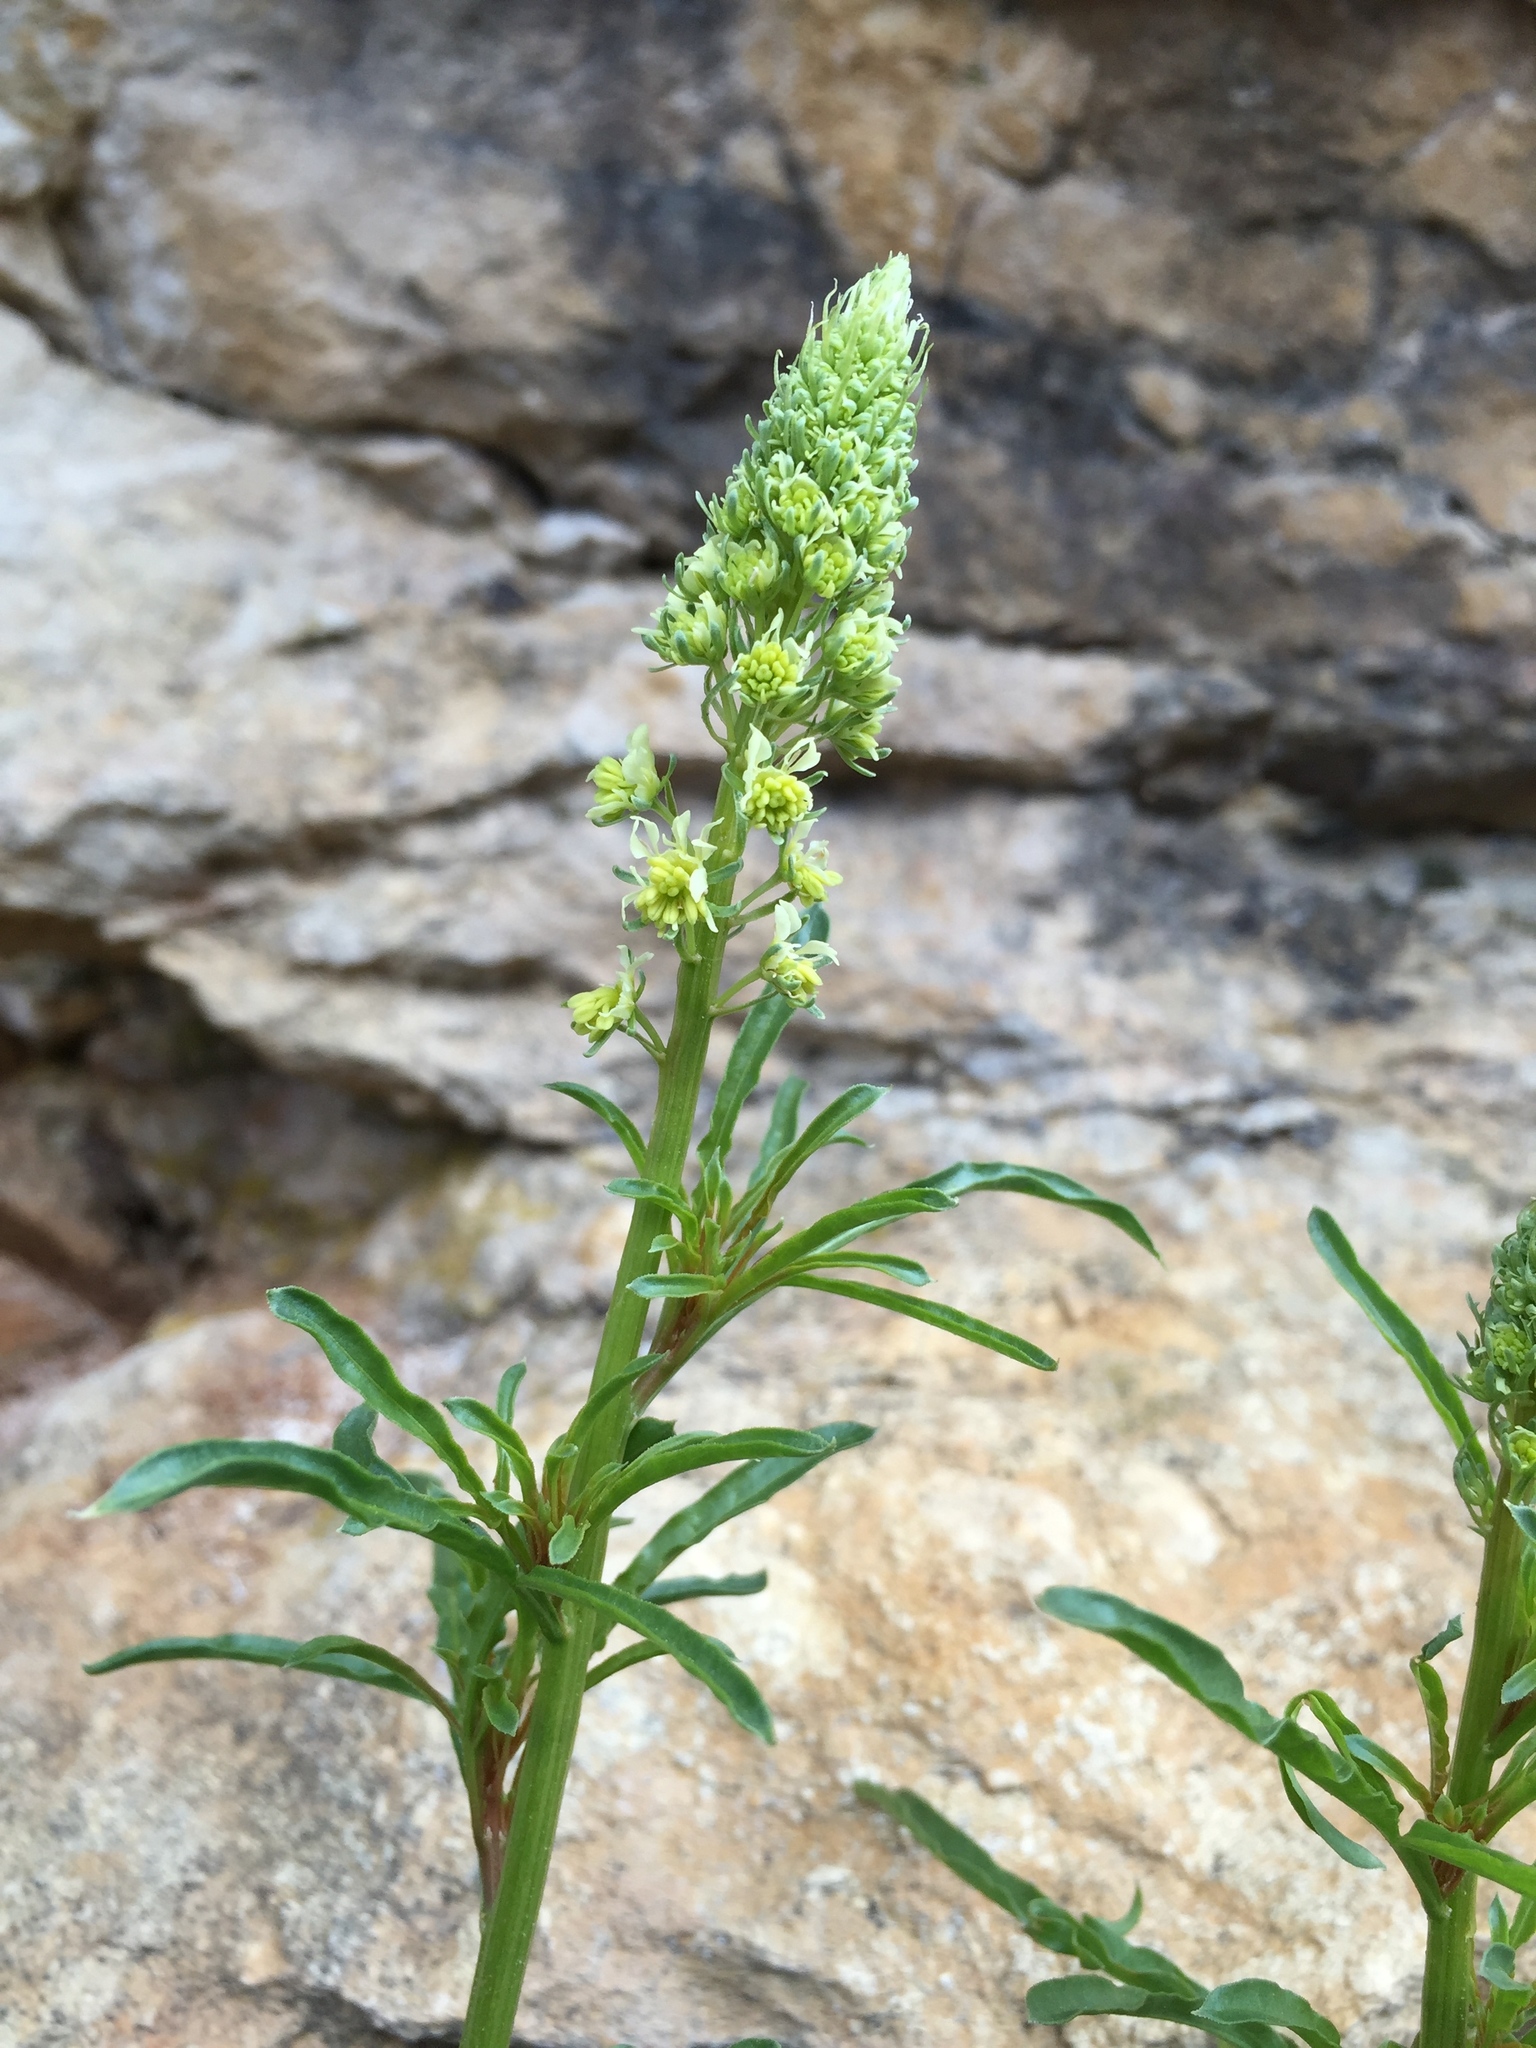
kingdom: Plantae
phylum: Tracheophyta
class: Magnoliopsida
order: Brassicales
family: Resedaceae
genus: Reseda
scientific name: Reseda lutea
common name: Wild mignonette
